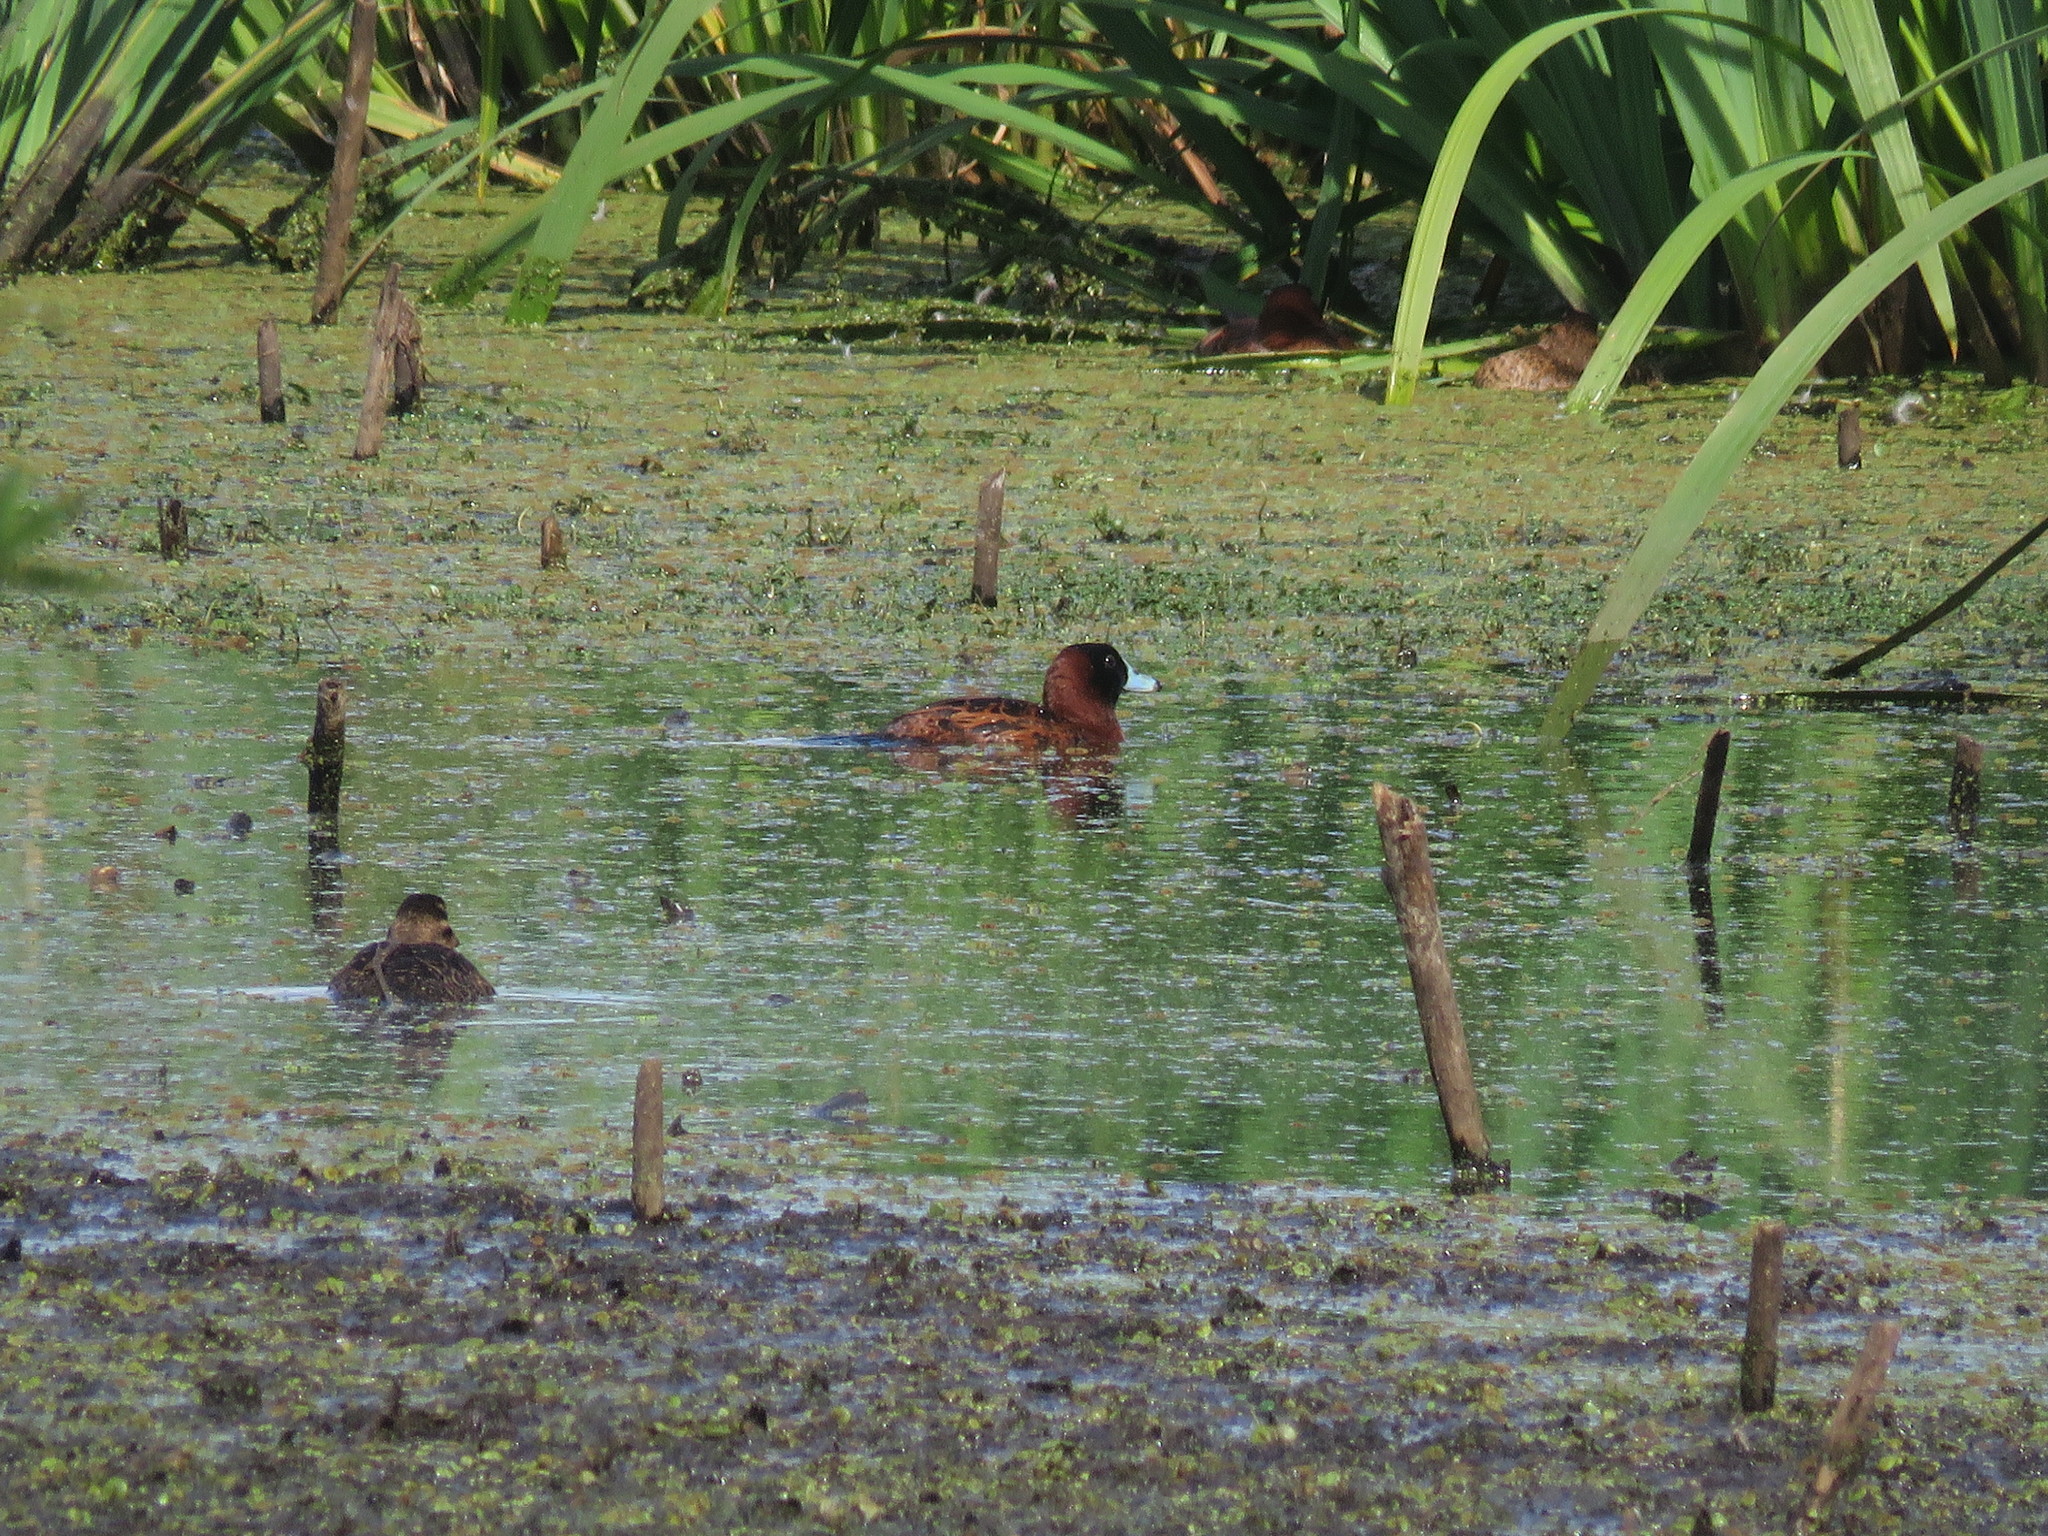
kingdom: Animalia
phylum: Chordata
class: Aves
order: Anseriformes
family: Anatidae
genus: Nomonyx
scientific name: Nomonyx dominicus
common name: Masked duck
